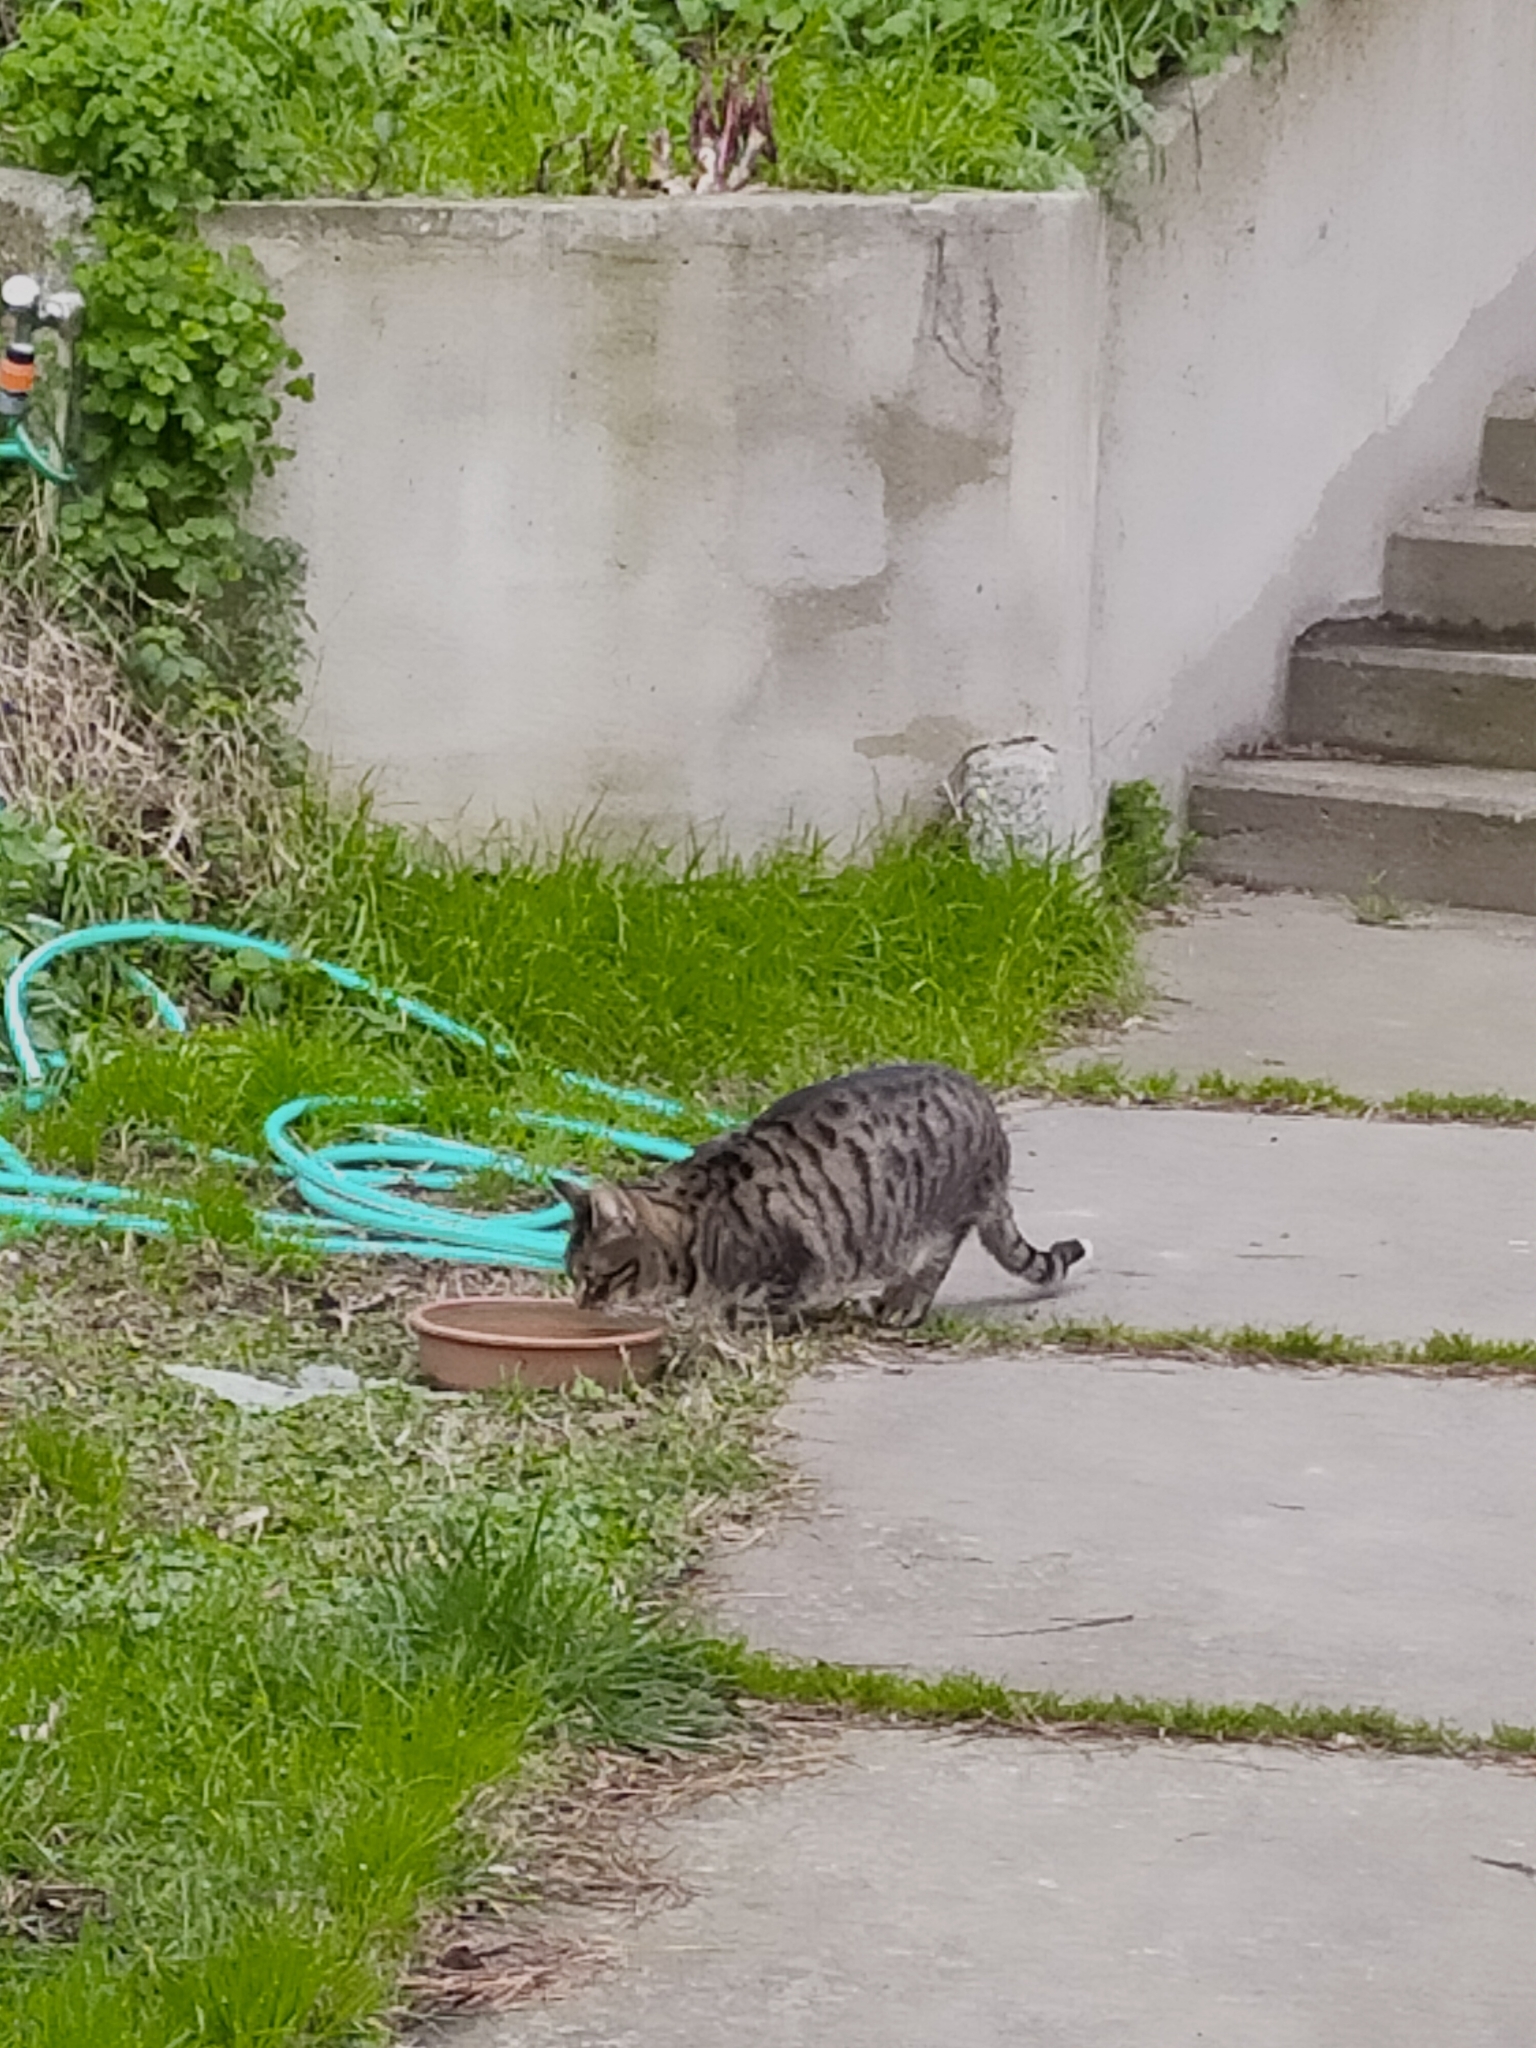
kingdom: Animalia
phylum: Chordata
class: Mammalia
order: Carnivora
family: Felidae
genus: Felis
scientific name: Felis catus
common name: Domestic cat
